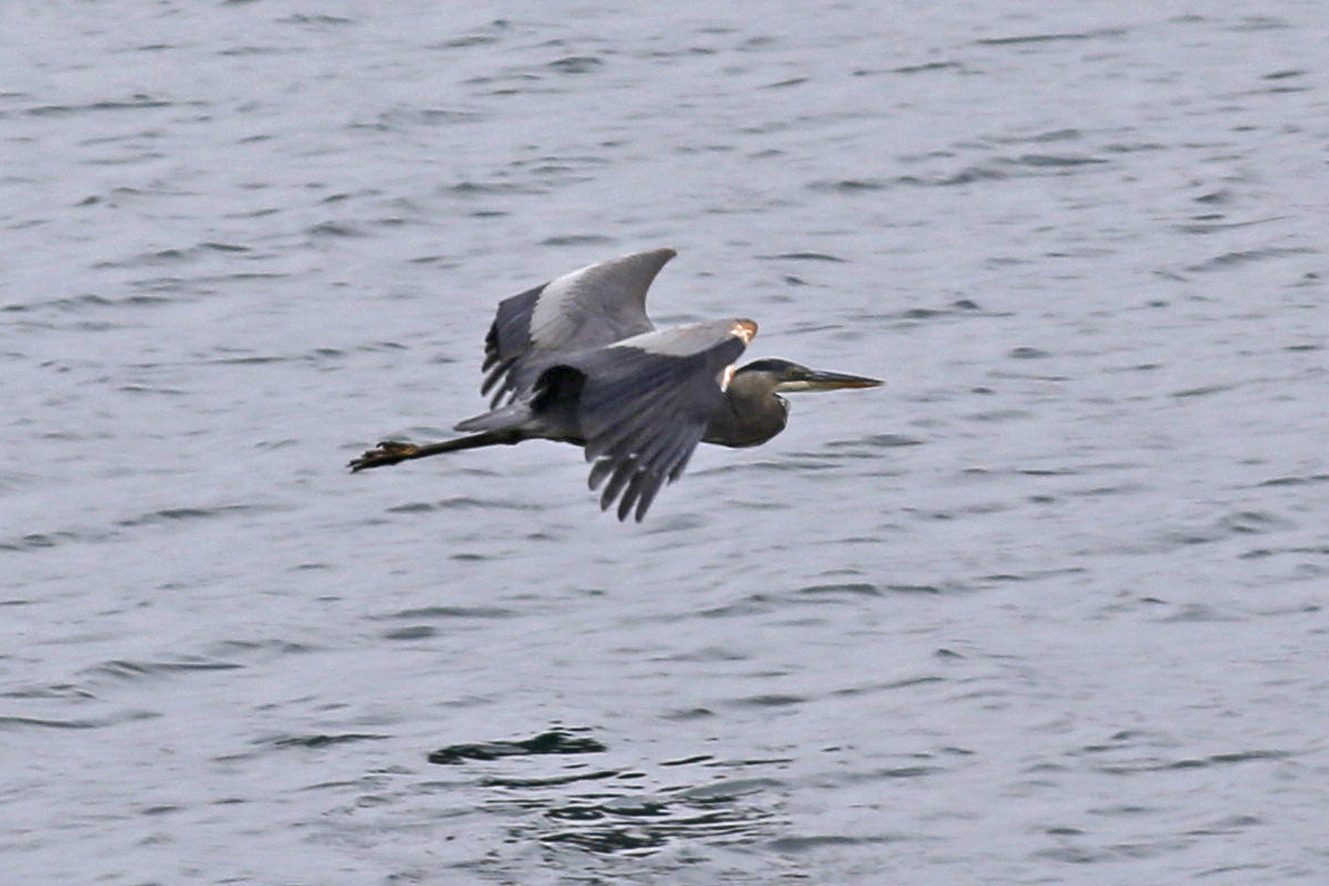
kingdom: Animalia
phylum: Chordata
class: Aves
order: Pelecaniformes
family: Ardeidae
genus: Ardea
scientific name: Ardea herodias
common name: Great blue heron
